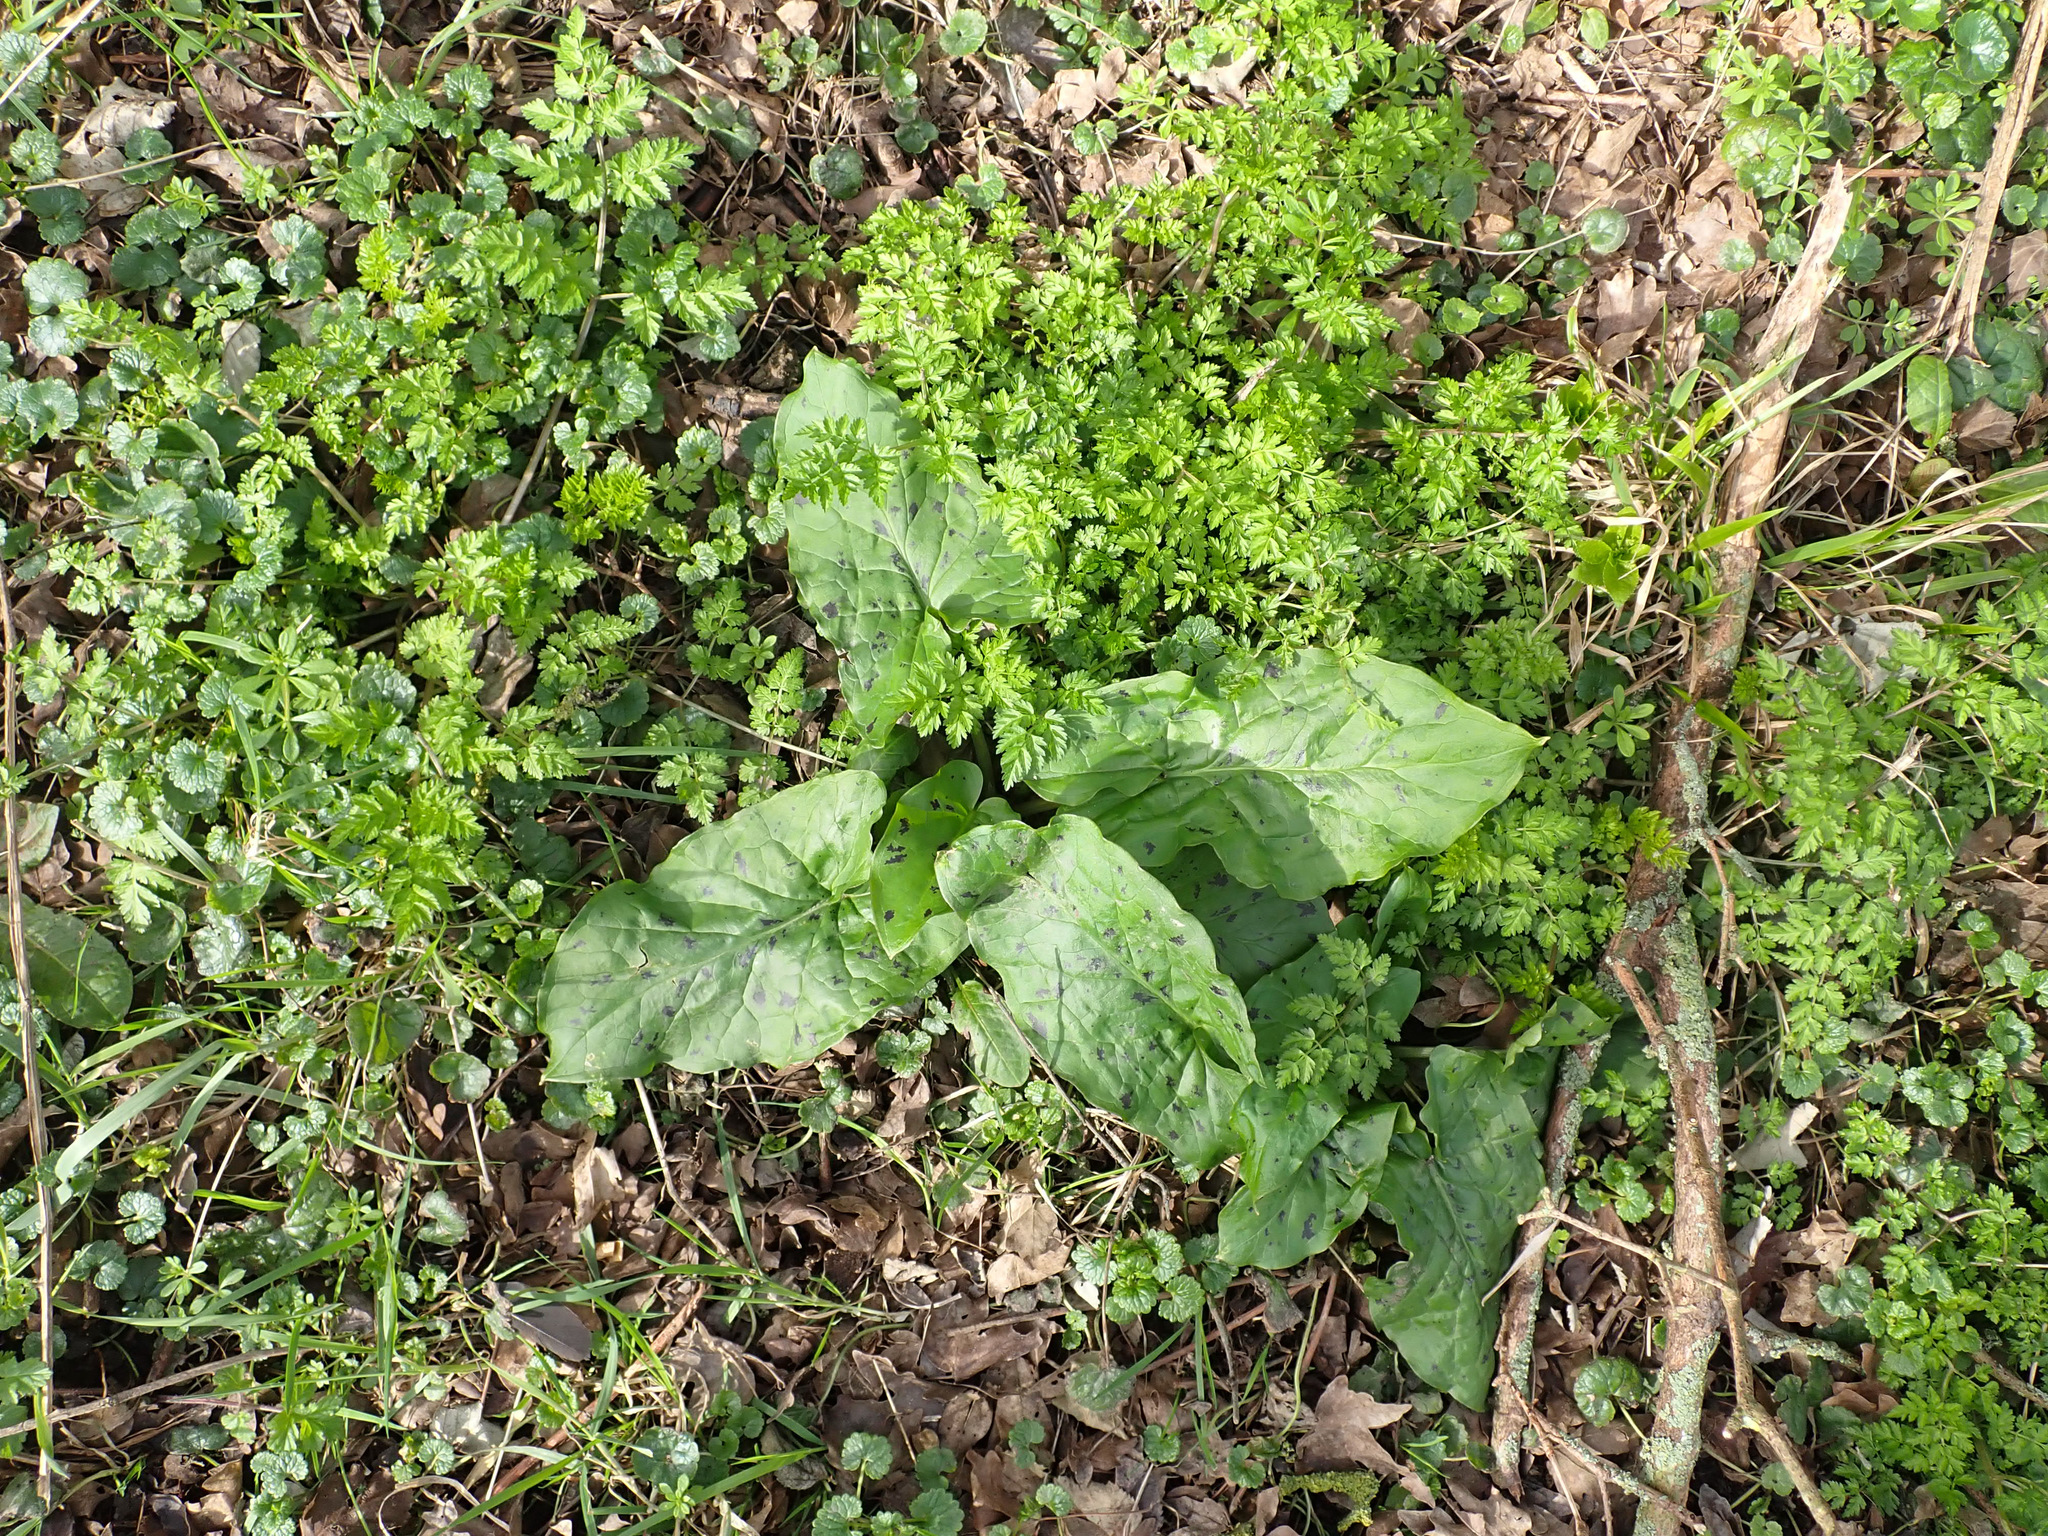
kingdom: Plantae
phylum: Tracheophyta
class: Liliopsida
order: Alismatales
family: Araceae
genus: Arum
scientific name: Arum maculatum
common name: Lords-and-ladies
